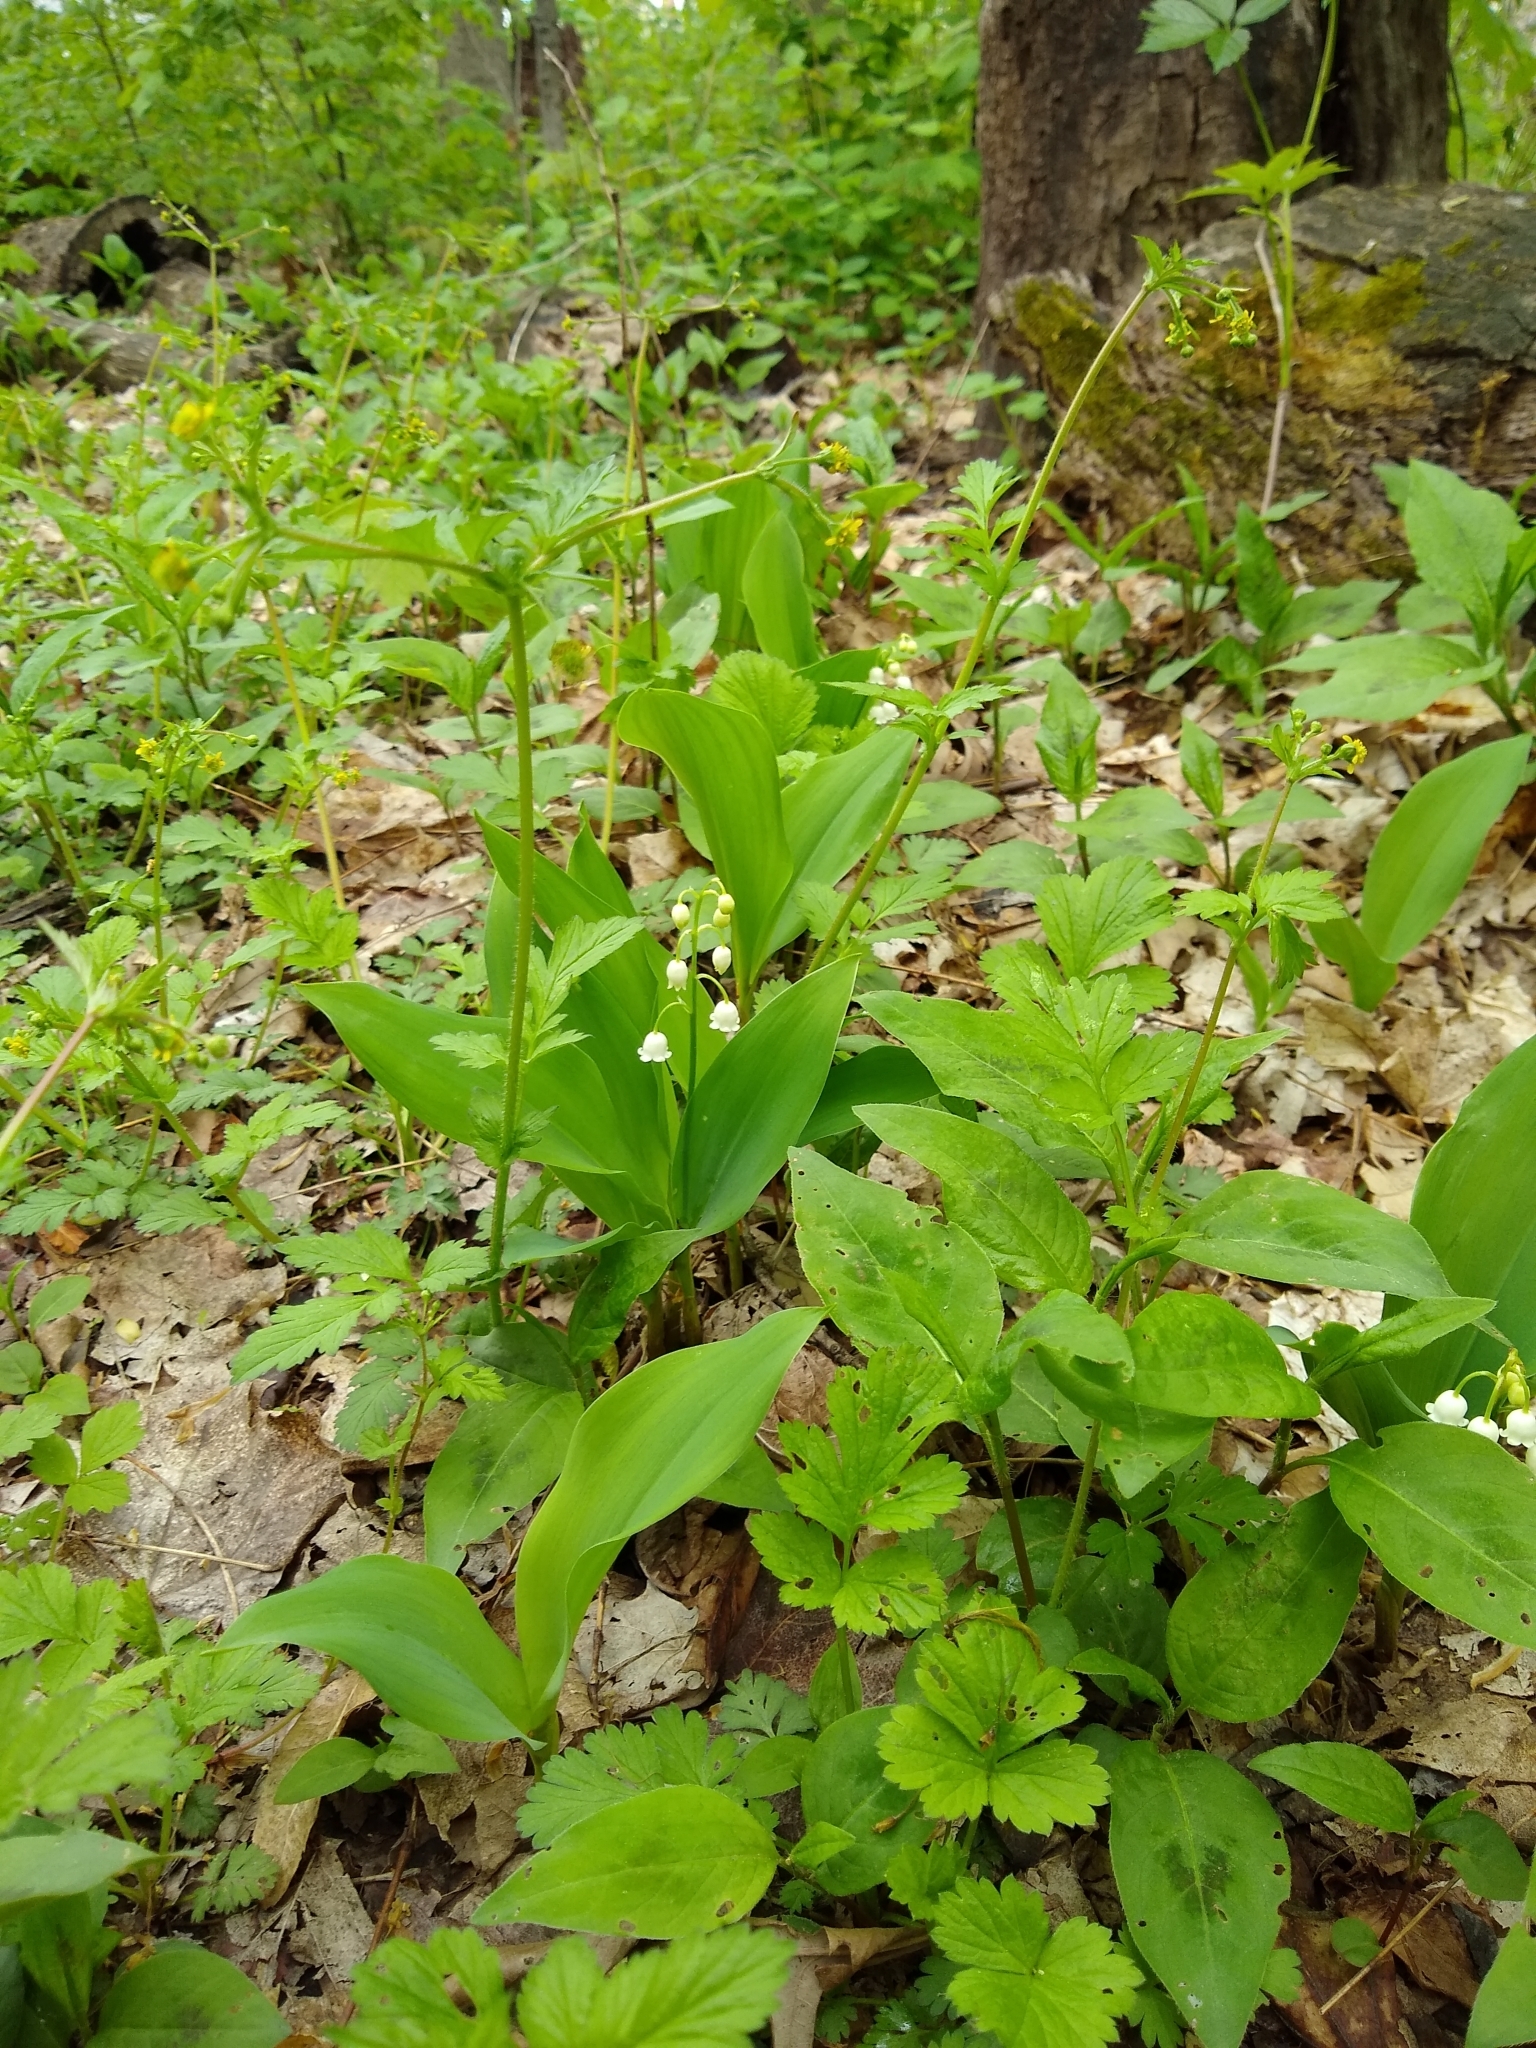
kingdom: Plantae
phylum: Tracheophyta
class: Liliopsida
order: Asparagales
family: Asparagaceae
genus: Convallaria
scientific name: Convallaria majalis
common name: Lily-of-the-valley
